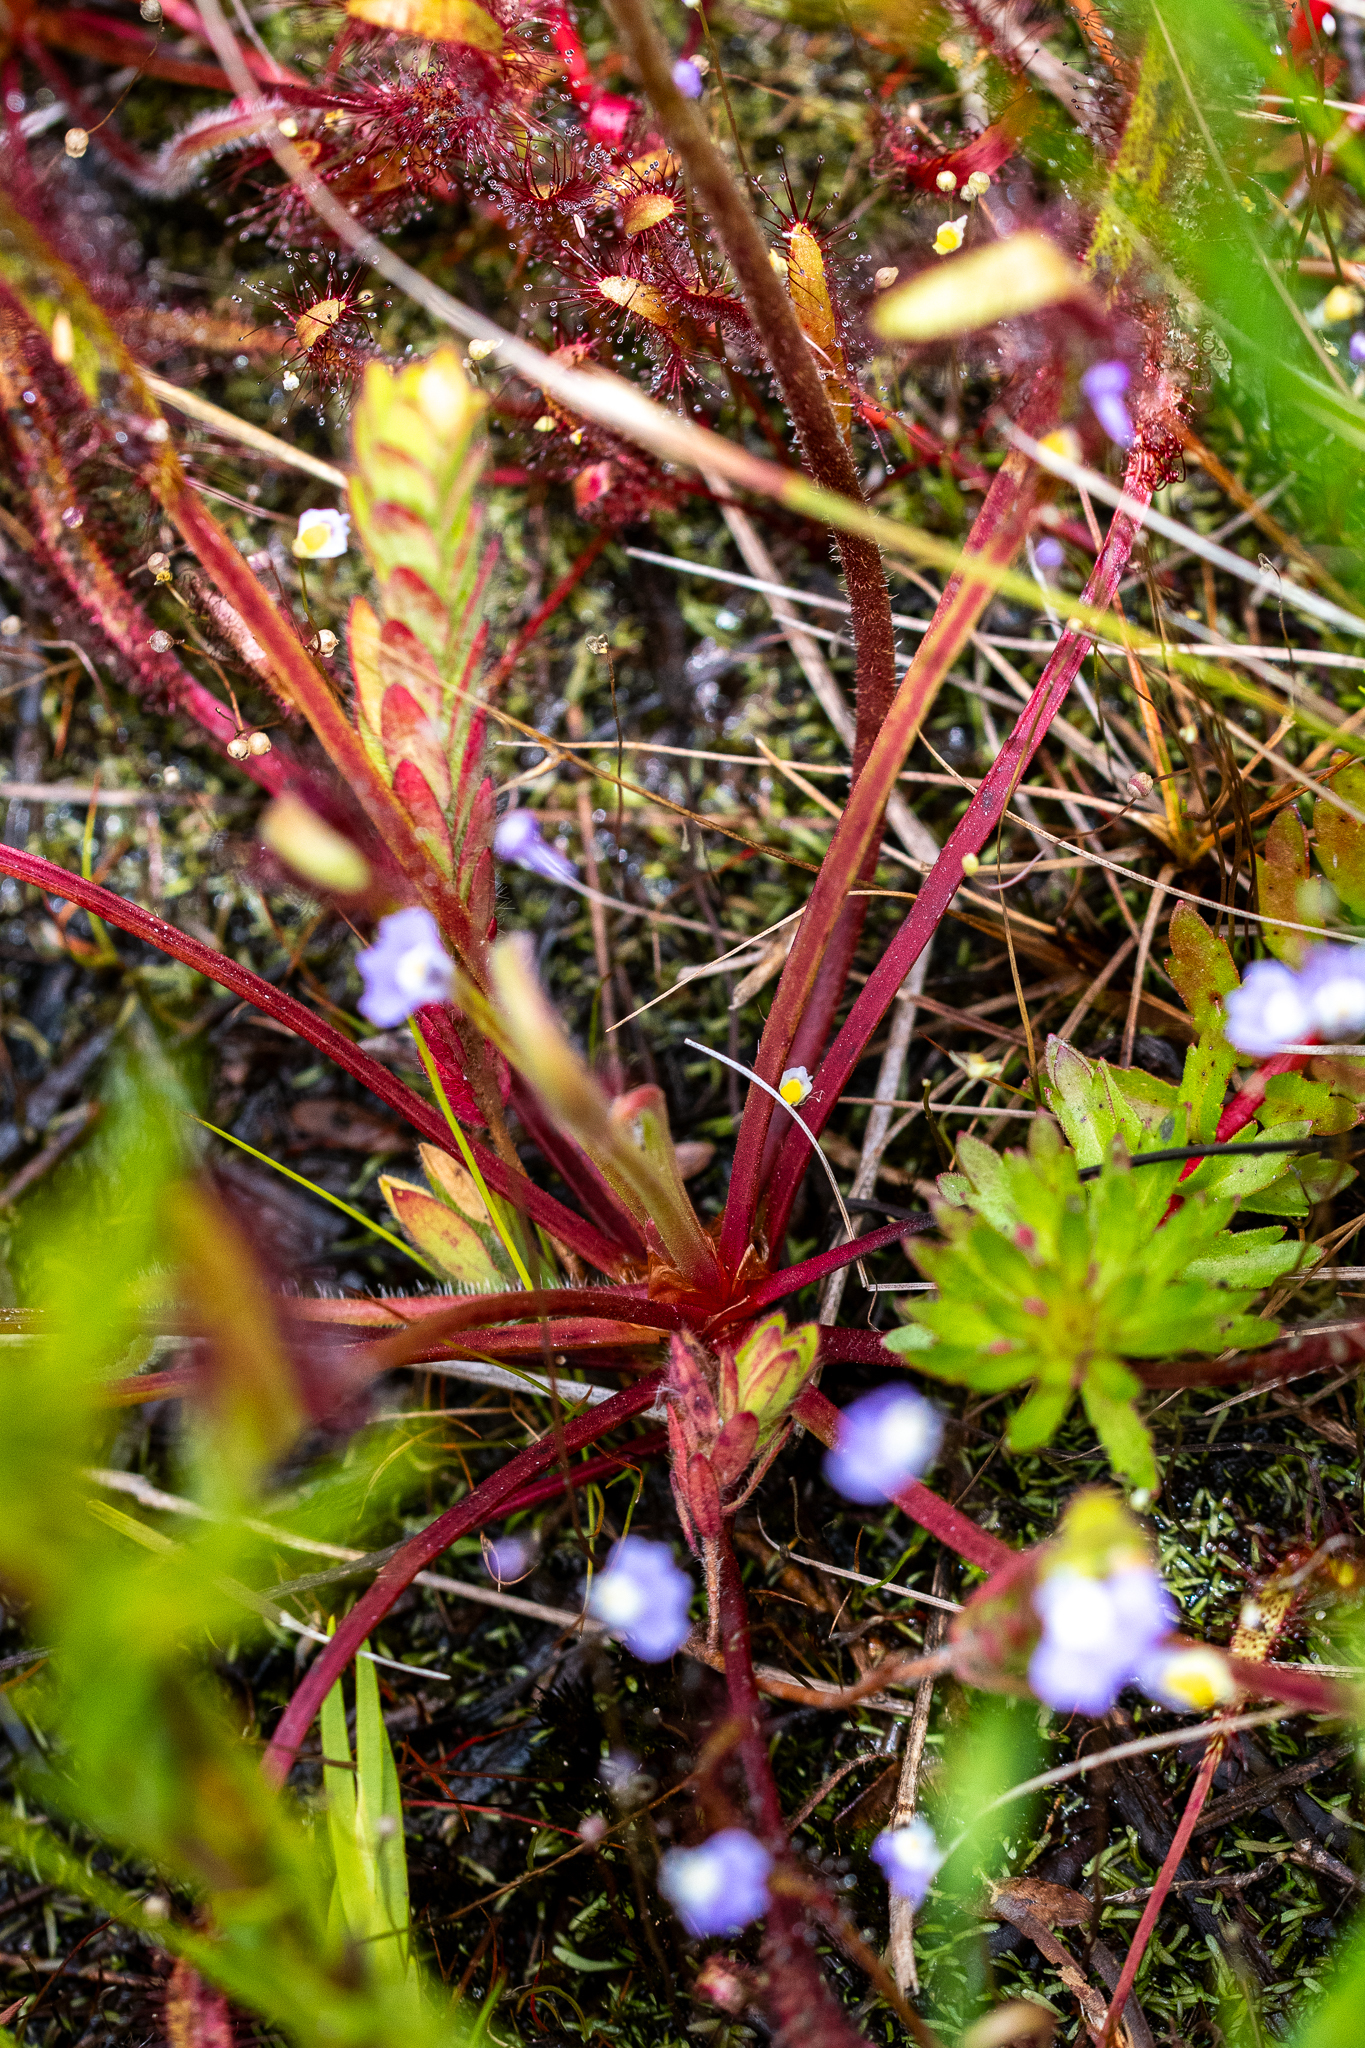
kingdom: Plantae
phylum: Tracheophyta
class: Magnoliopsida
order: Caryophyllales
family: Droseraceae
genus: Drosera
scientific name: Drosera capensis
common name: Cape sundew
